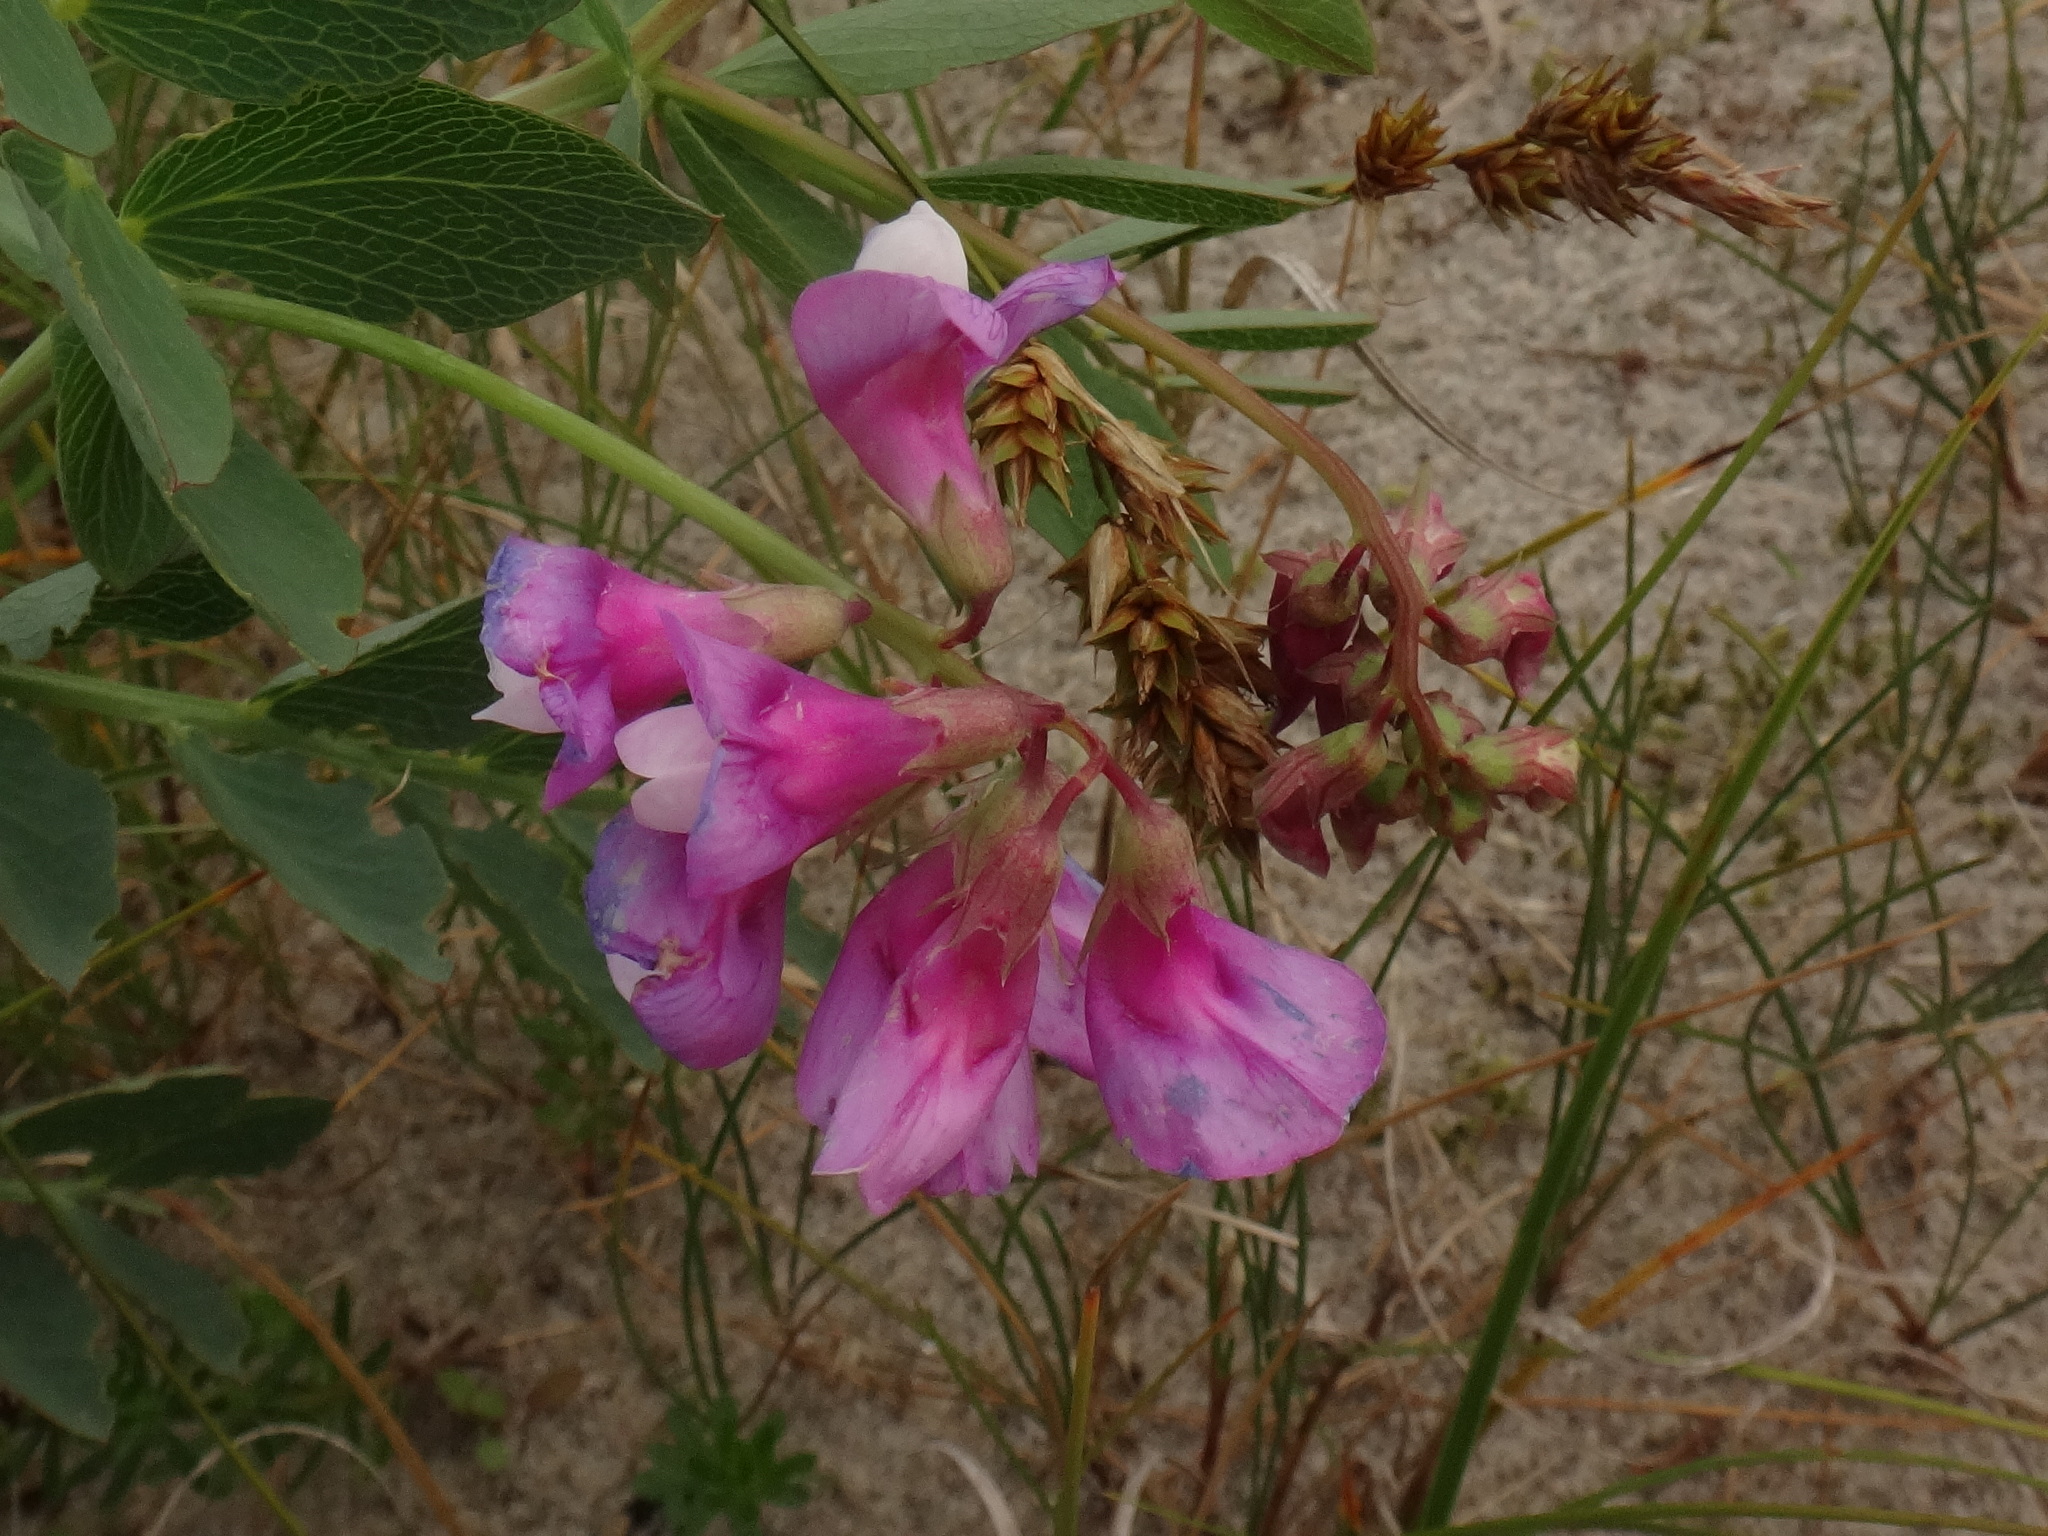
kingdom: Plantae
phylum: Tracheophyta
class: Magnoliopsida
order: Fabales
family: Fabaceae
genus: Lathyrus
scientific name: Lathyrus japonicus
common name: Sea pea
